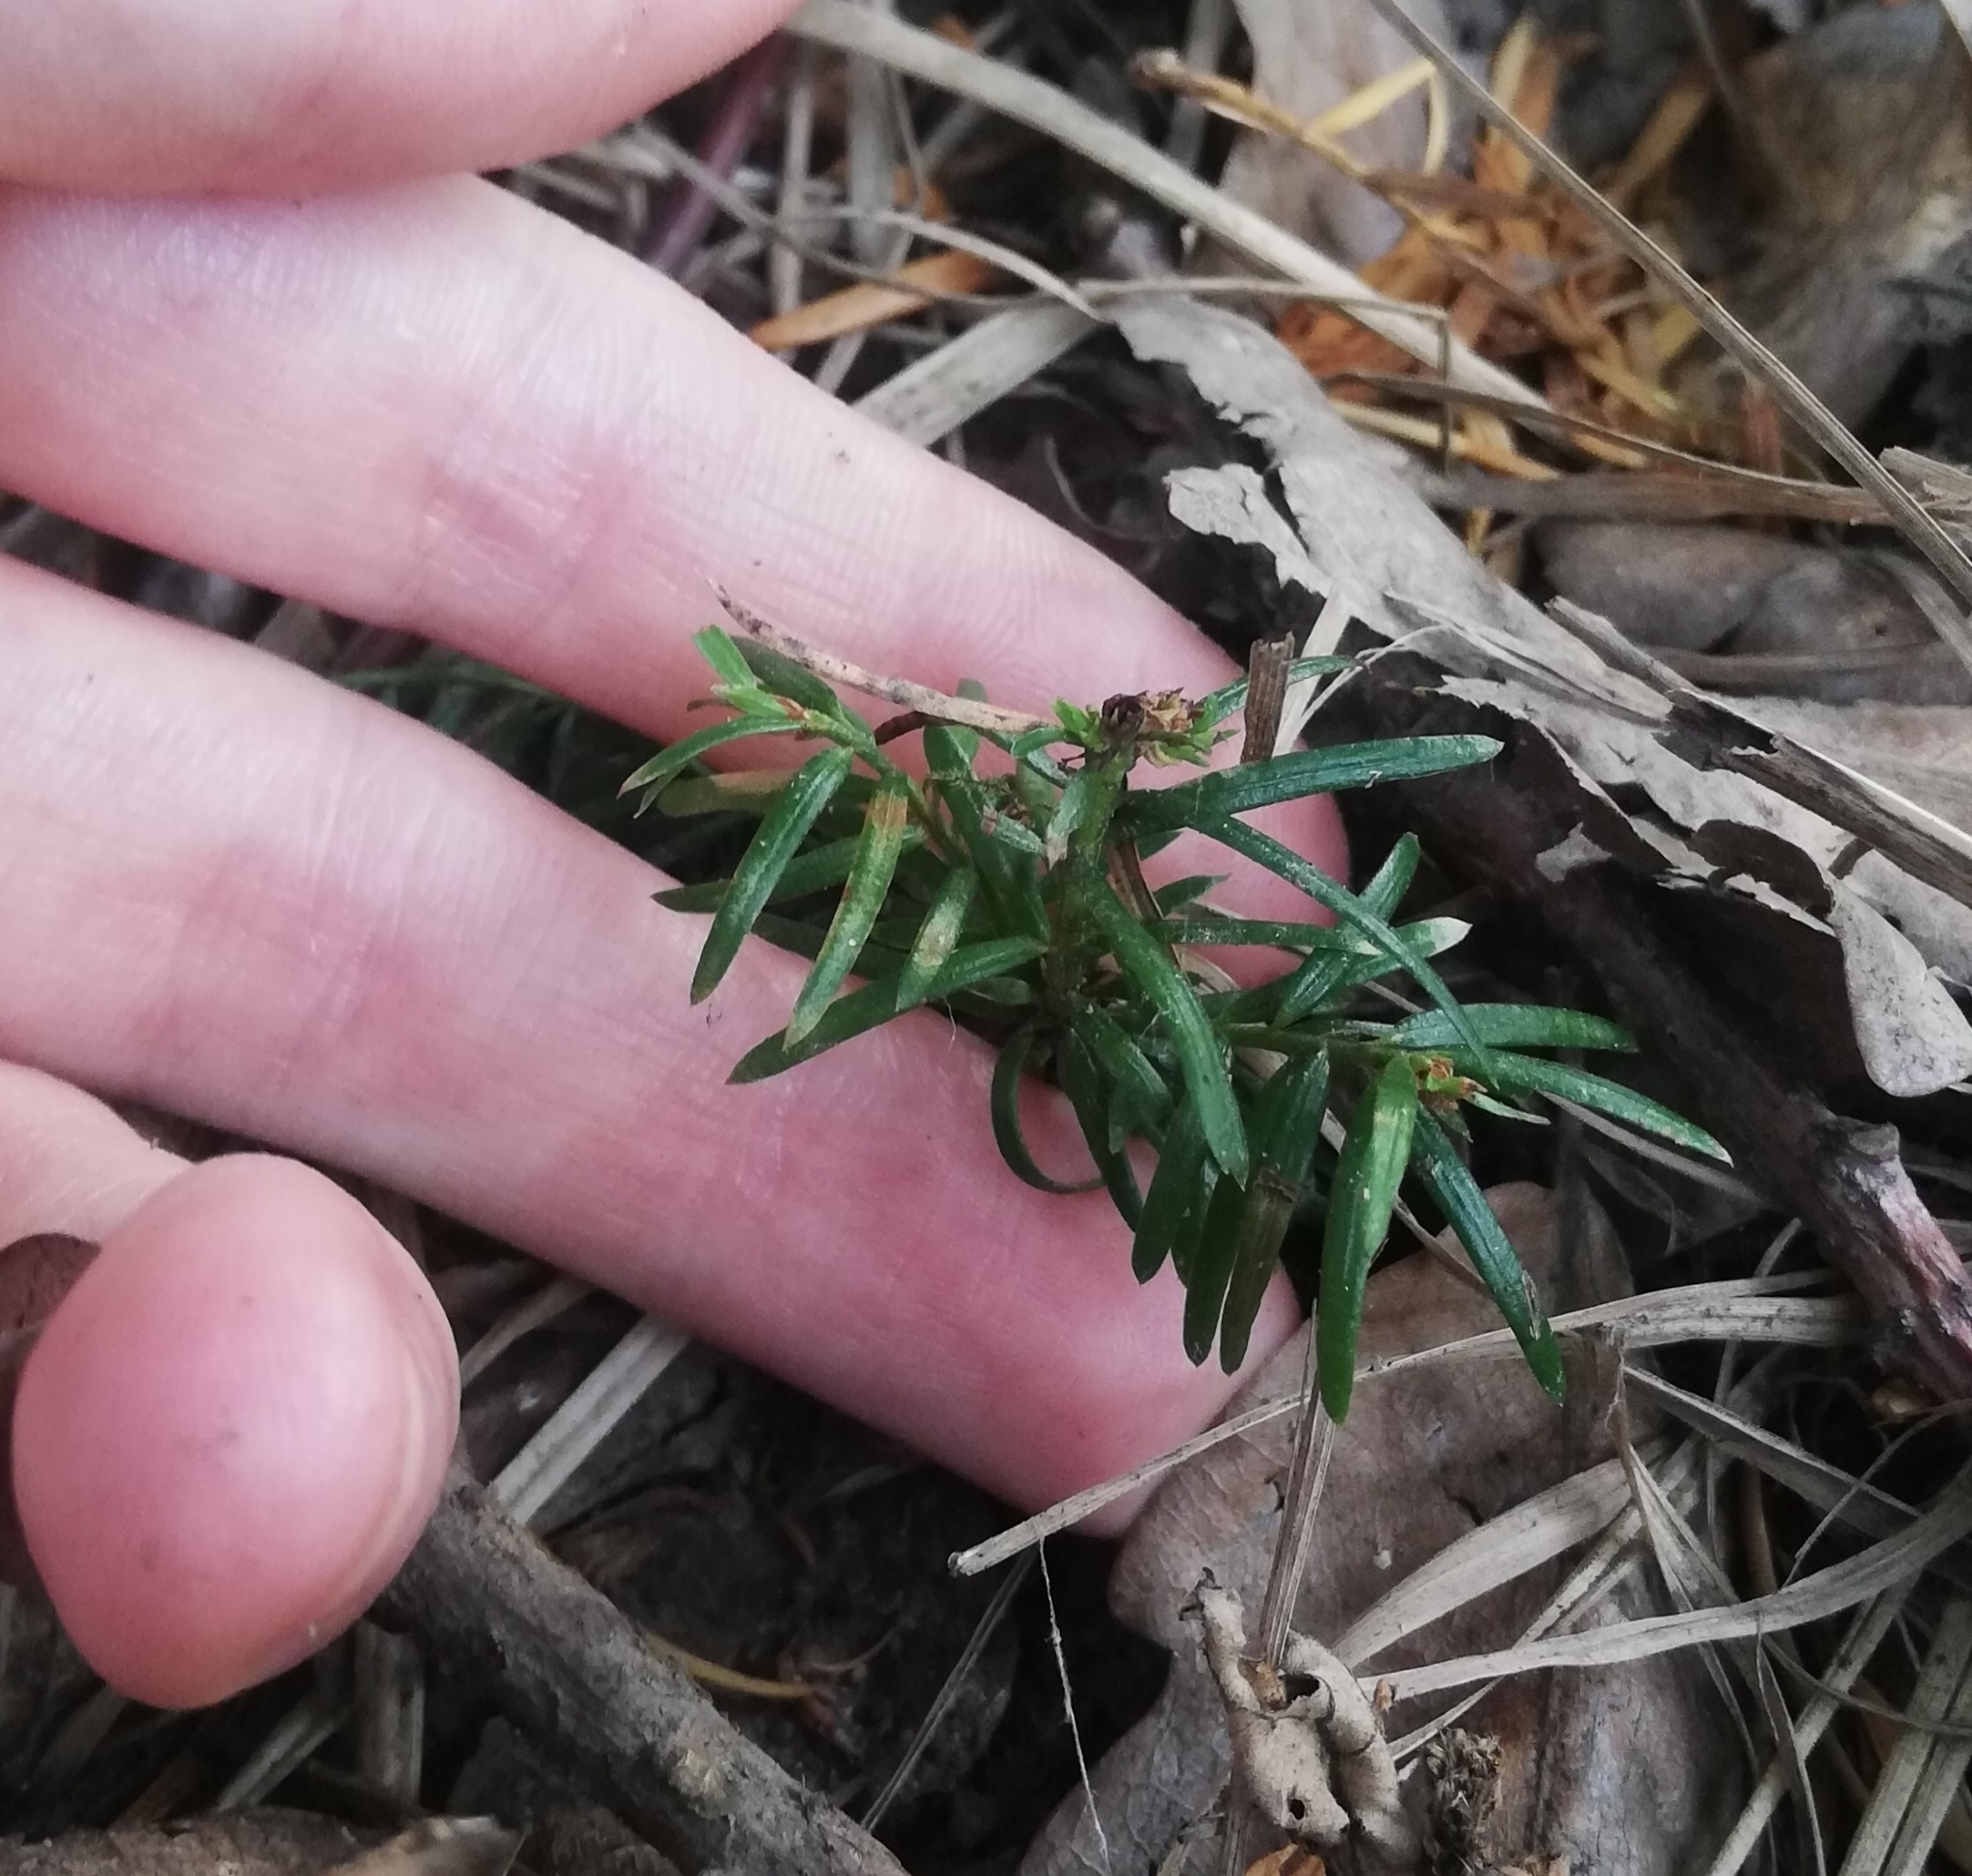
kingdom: Plantae
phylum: Tracheophyta
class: Pinopsida
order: Pinales
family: Taxaceae
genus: Taxus
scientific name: Taxus baccata
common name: Yew
